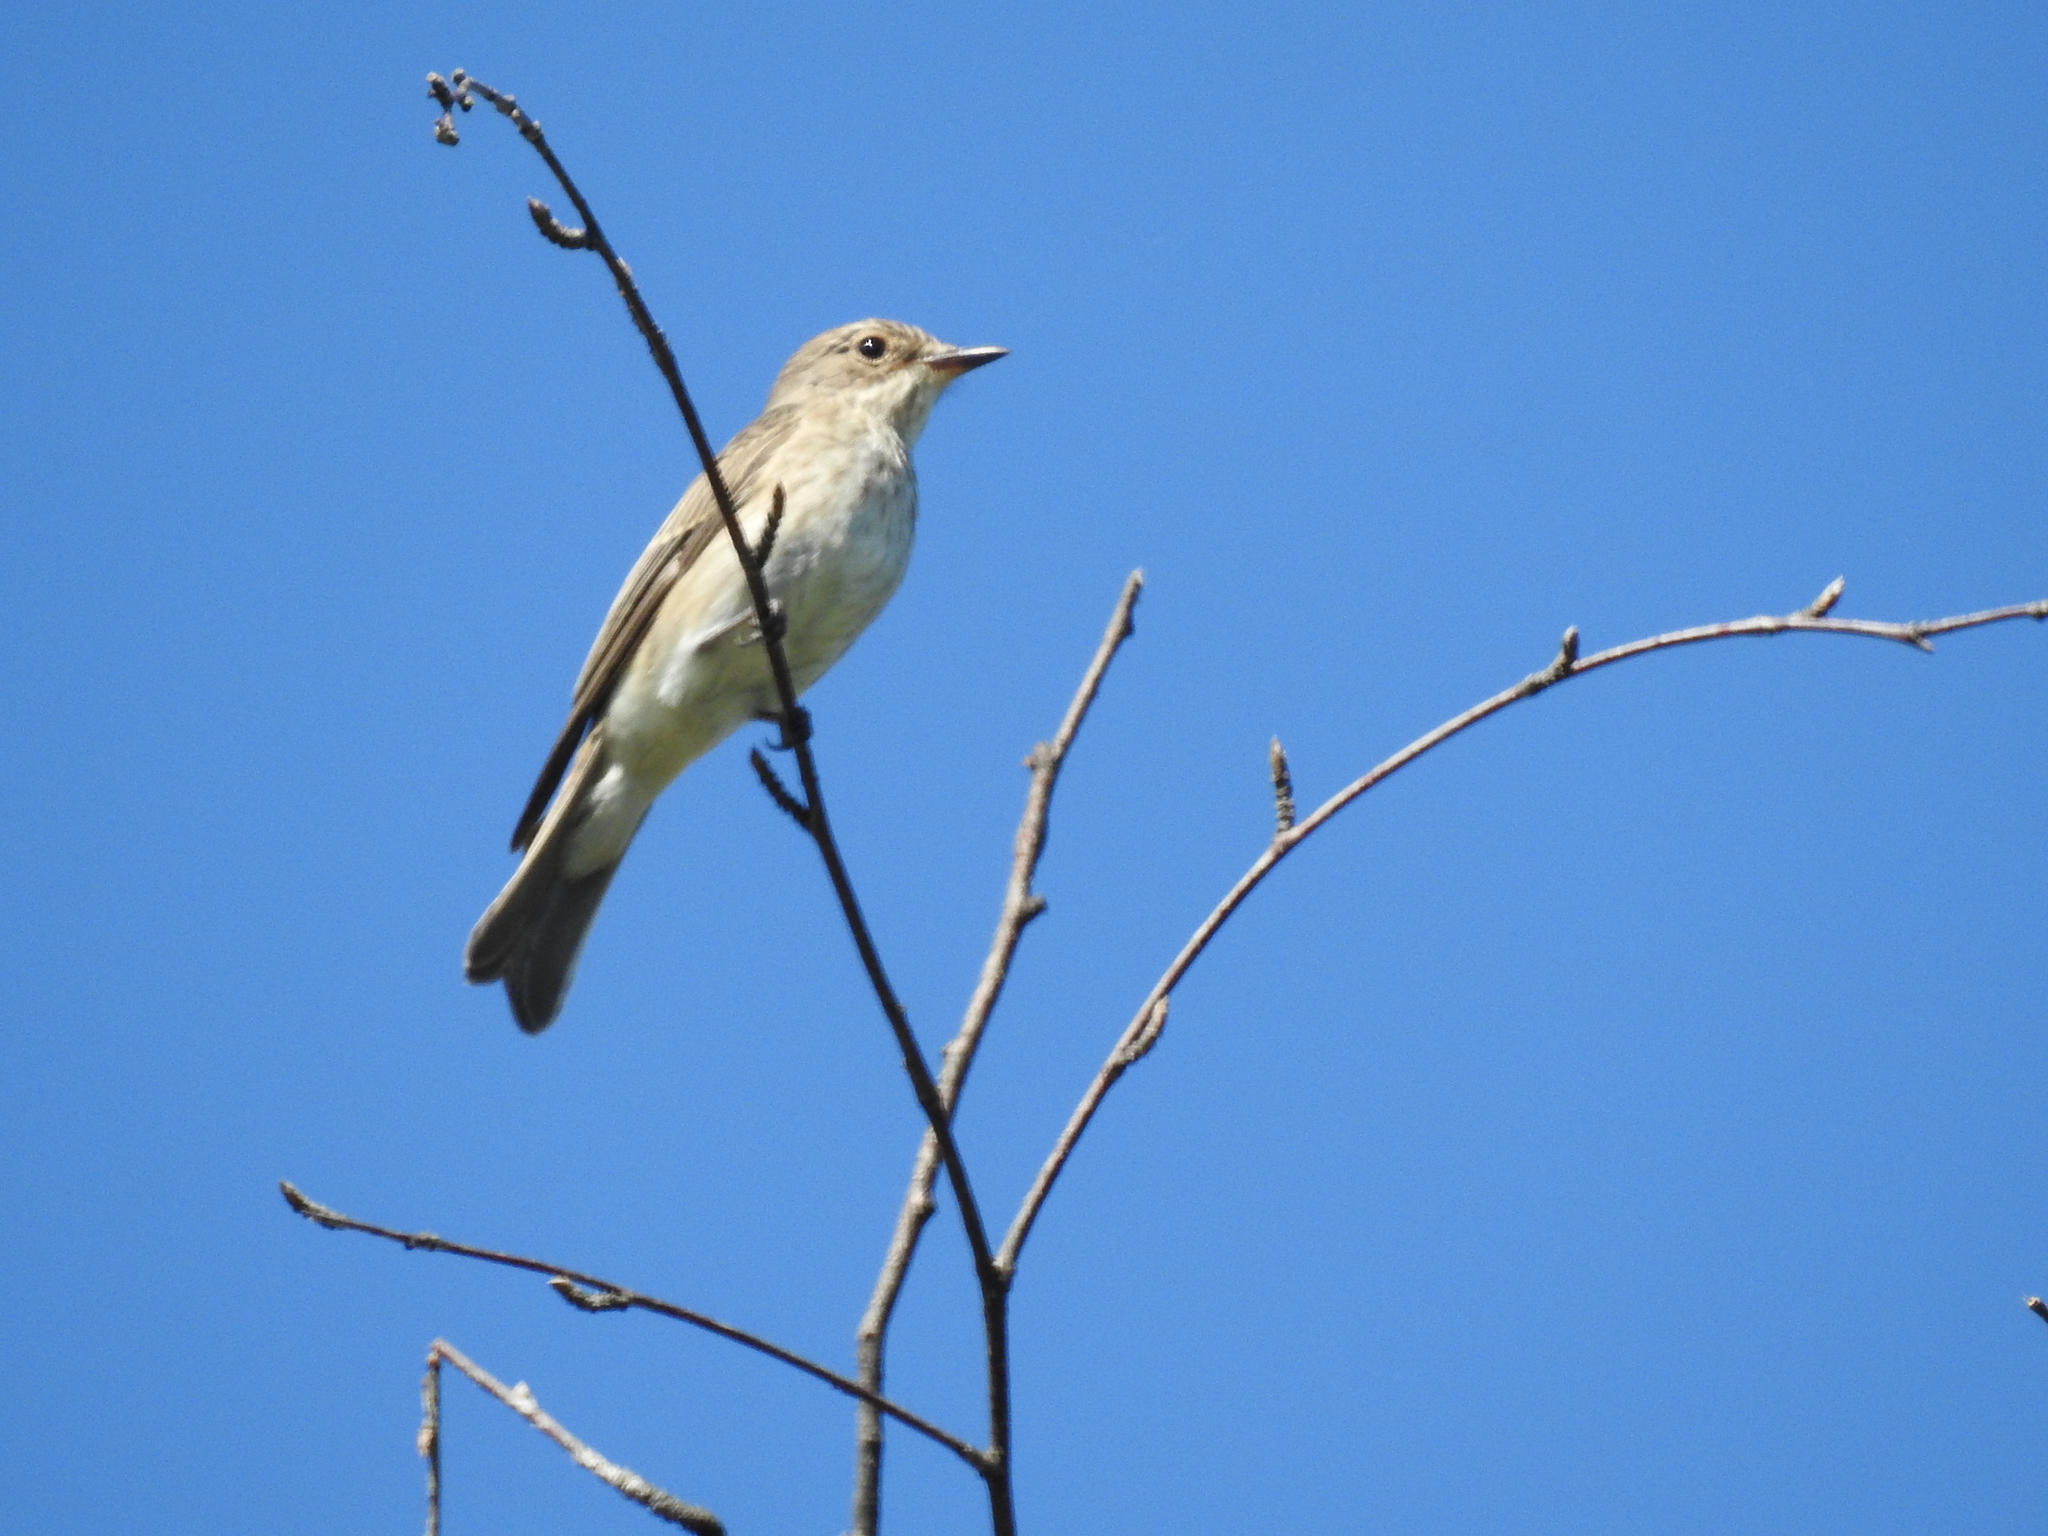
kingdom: Animalia
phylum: Chordata
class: Aves
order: Passeriformes
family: Muscicapidae
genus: Muscicapa
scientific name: Muscicapa striata
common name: Spotted flycatcher
